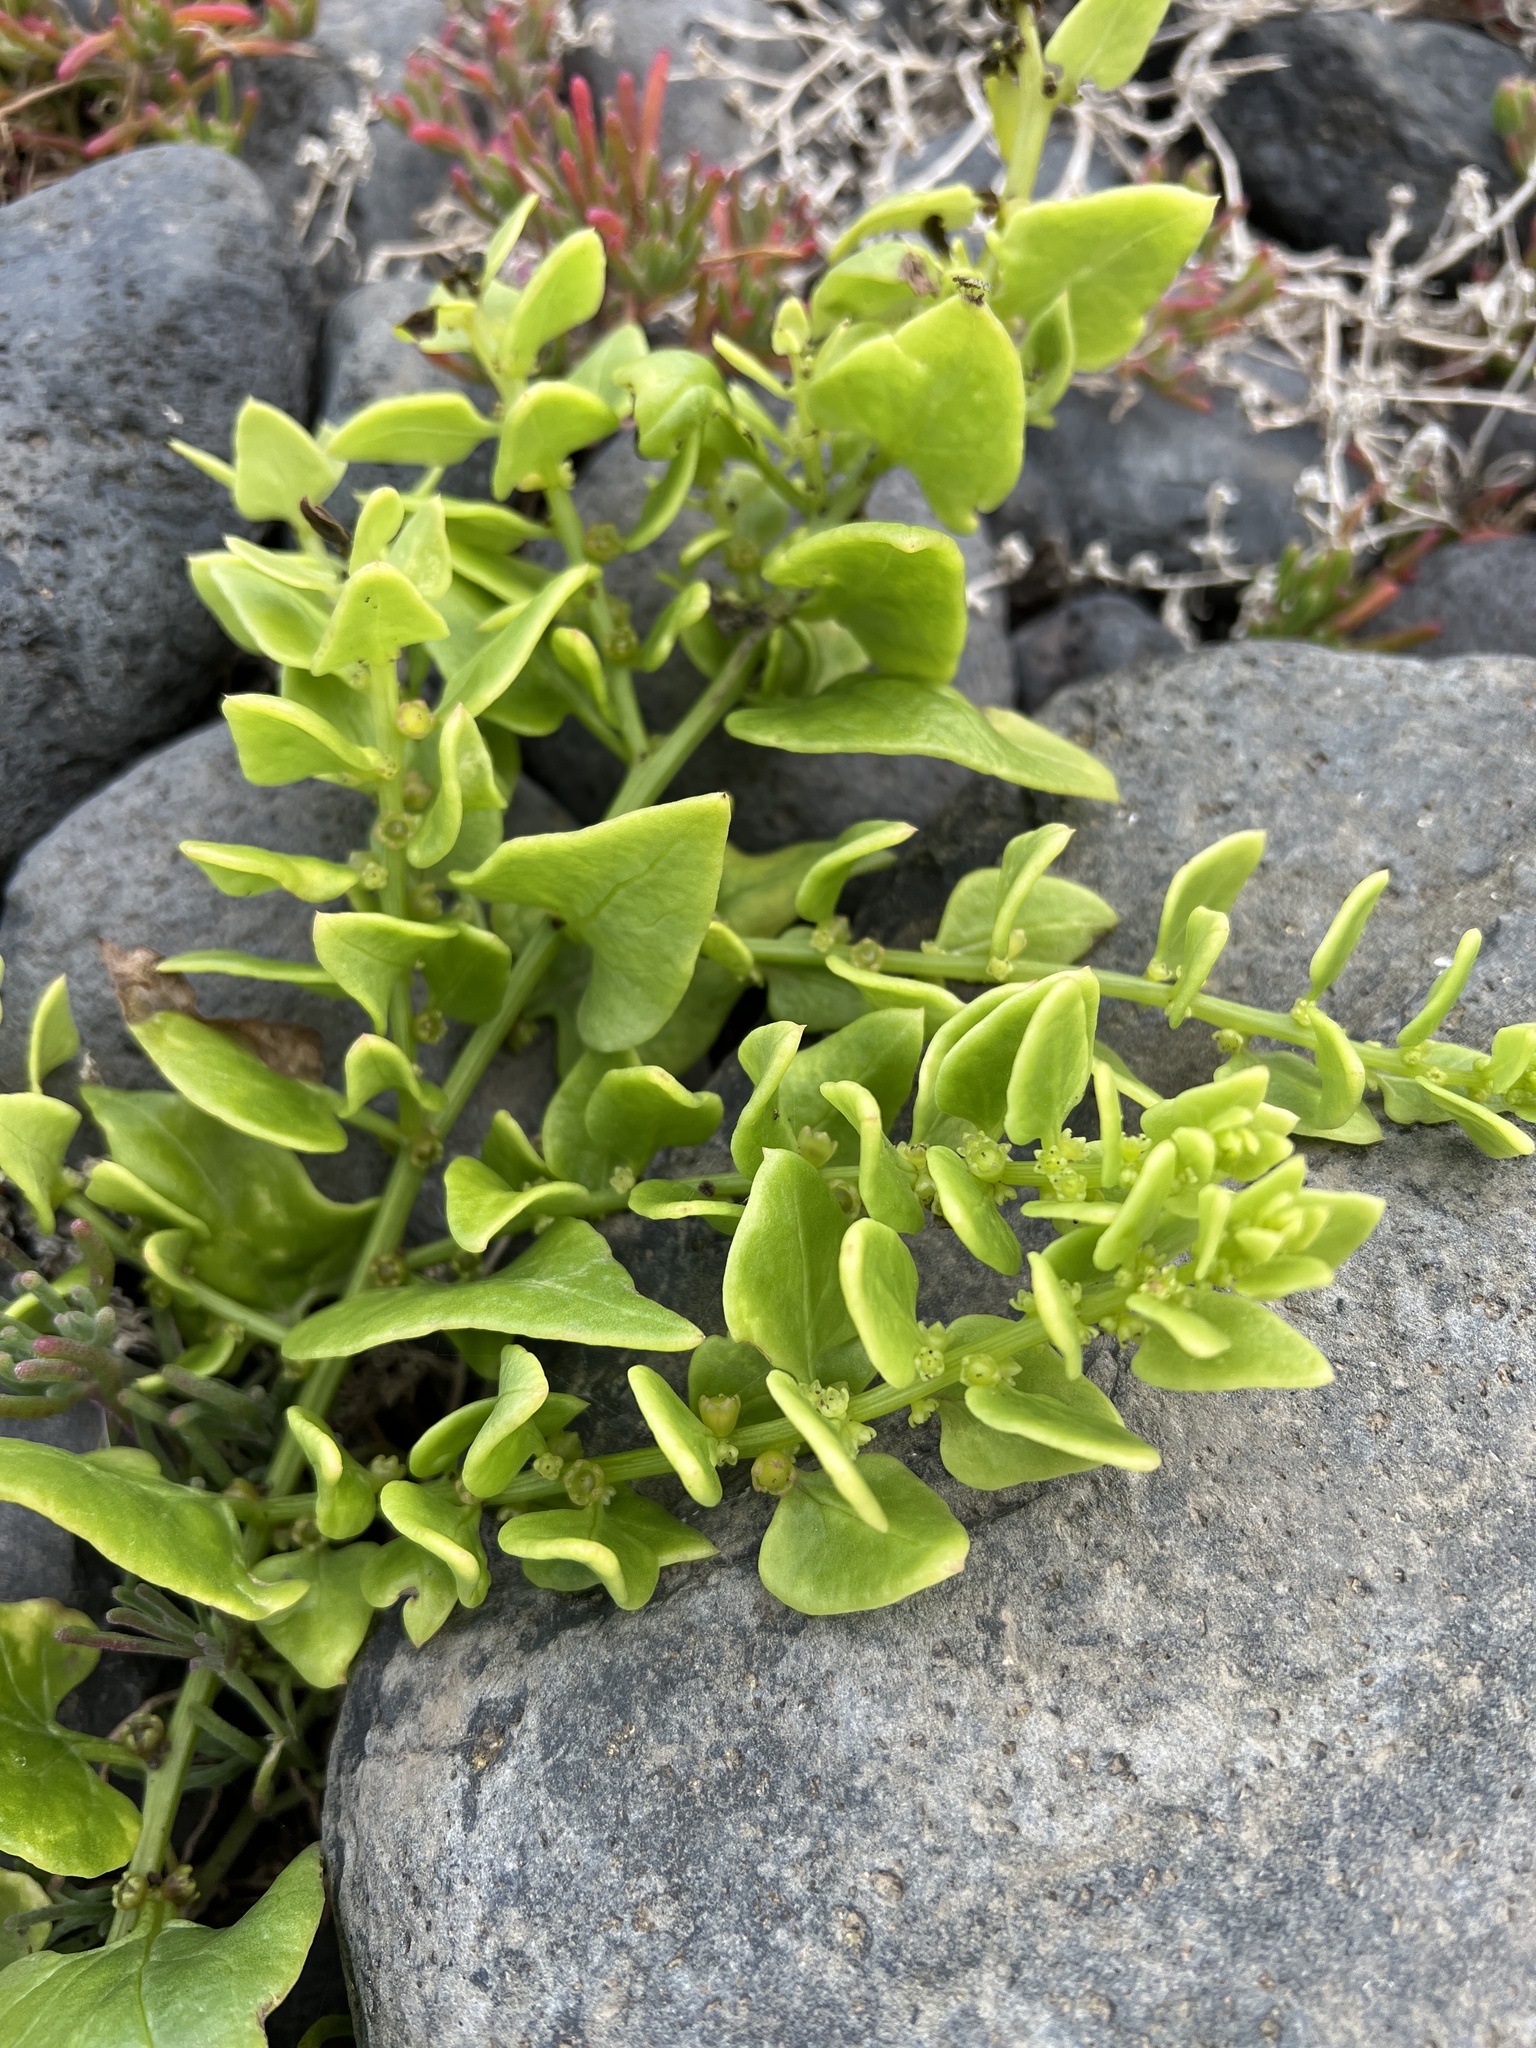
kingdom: Plantae
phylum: Tracheophyta
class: Magnoliopsida
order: Caryophyllales
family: Amaranthaceae
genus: Patellifolia
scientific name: Patellifolia procumbens
